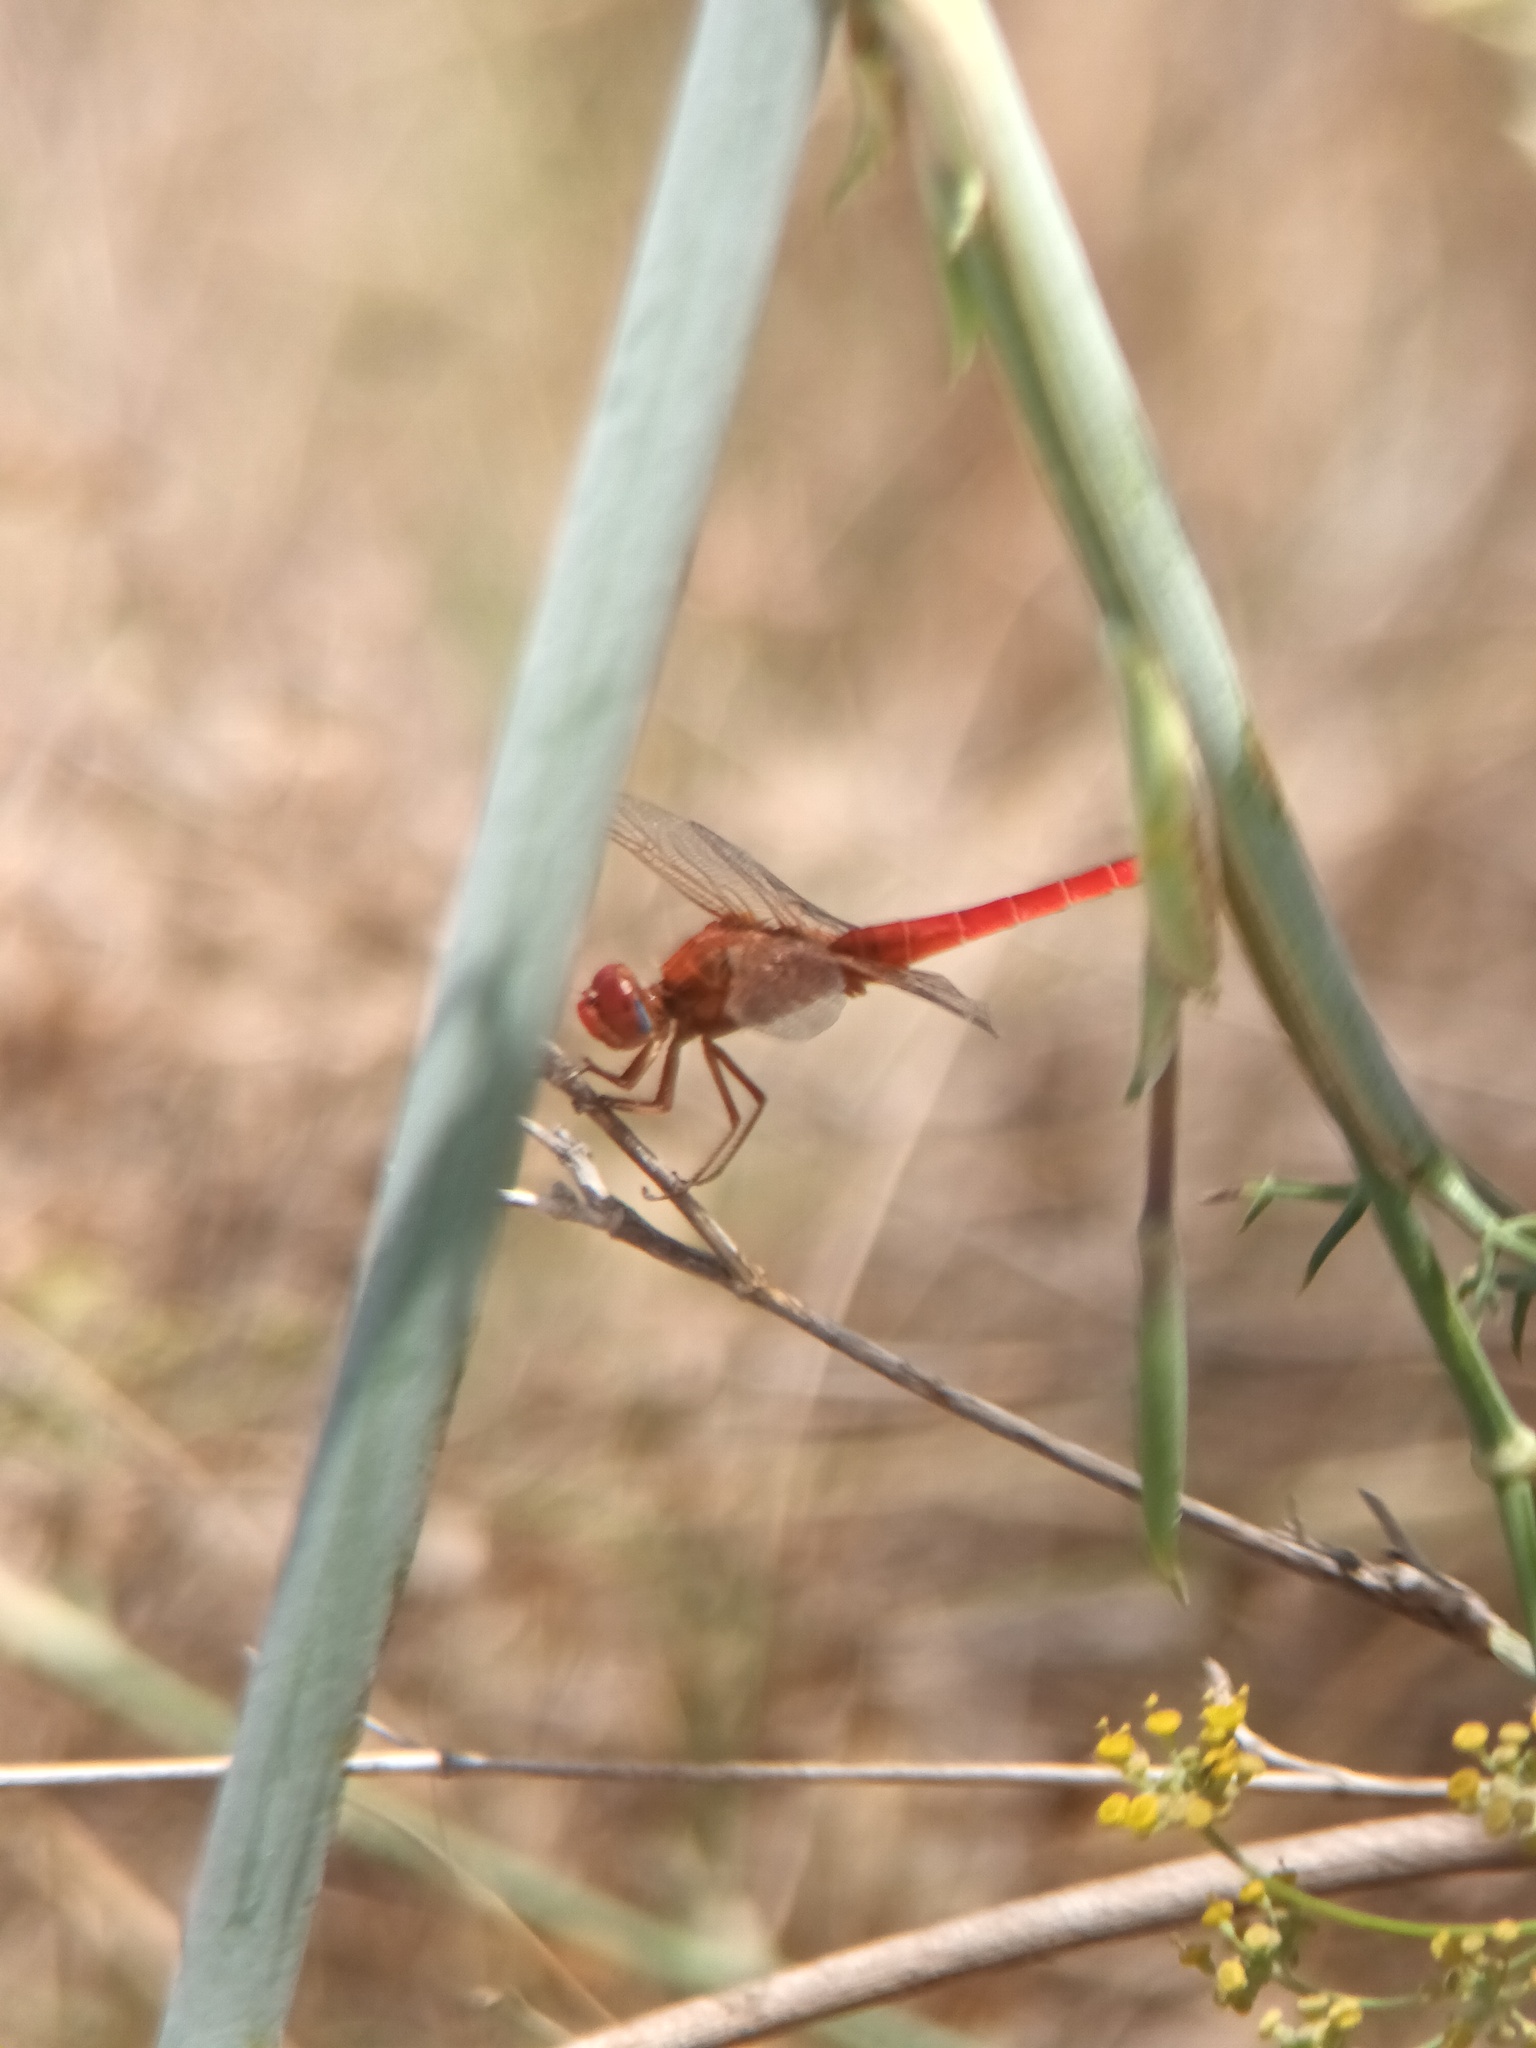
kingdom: Animalia
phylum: Arthropoda
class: Insecta
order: Odonata
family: Libellulidae
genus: Crocothemis
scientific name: Crocothemis erythraea
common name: Scarlet dragonfly
